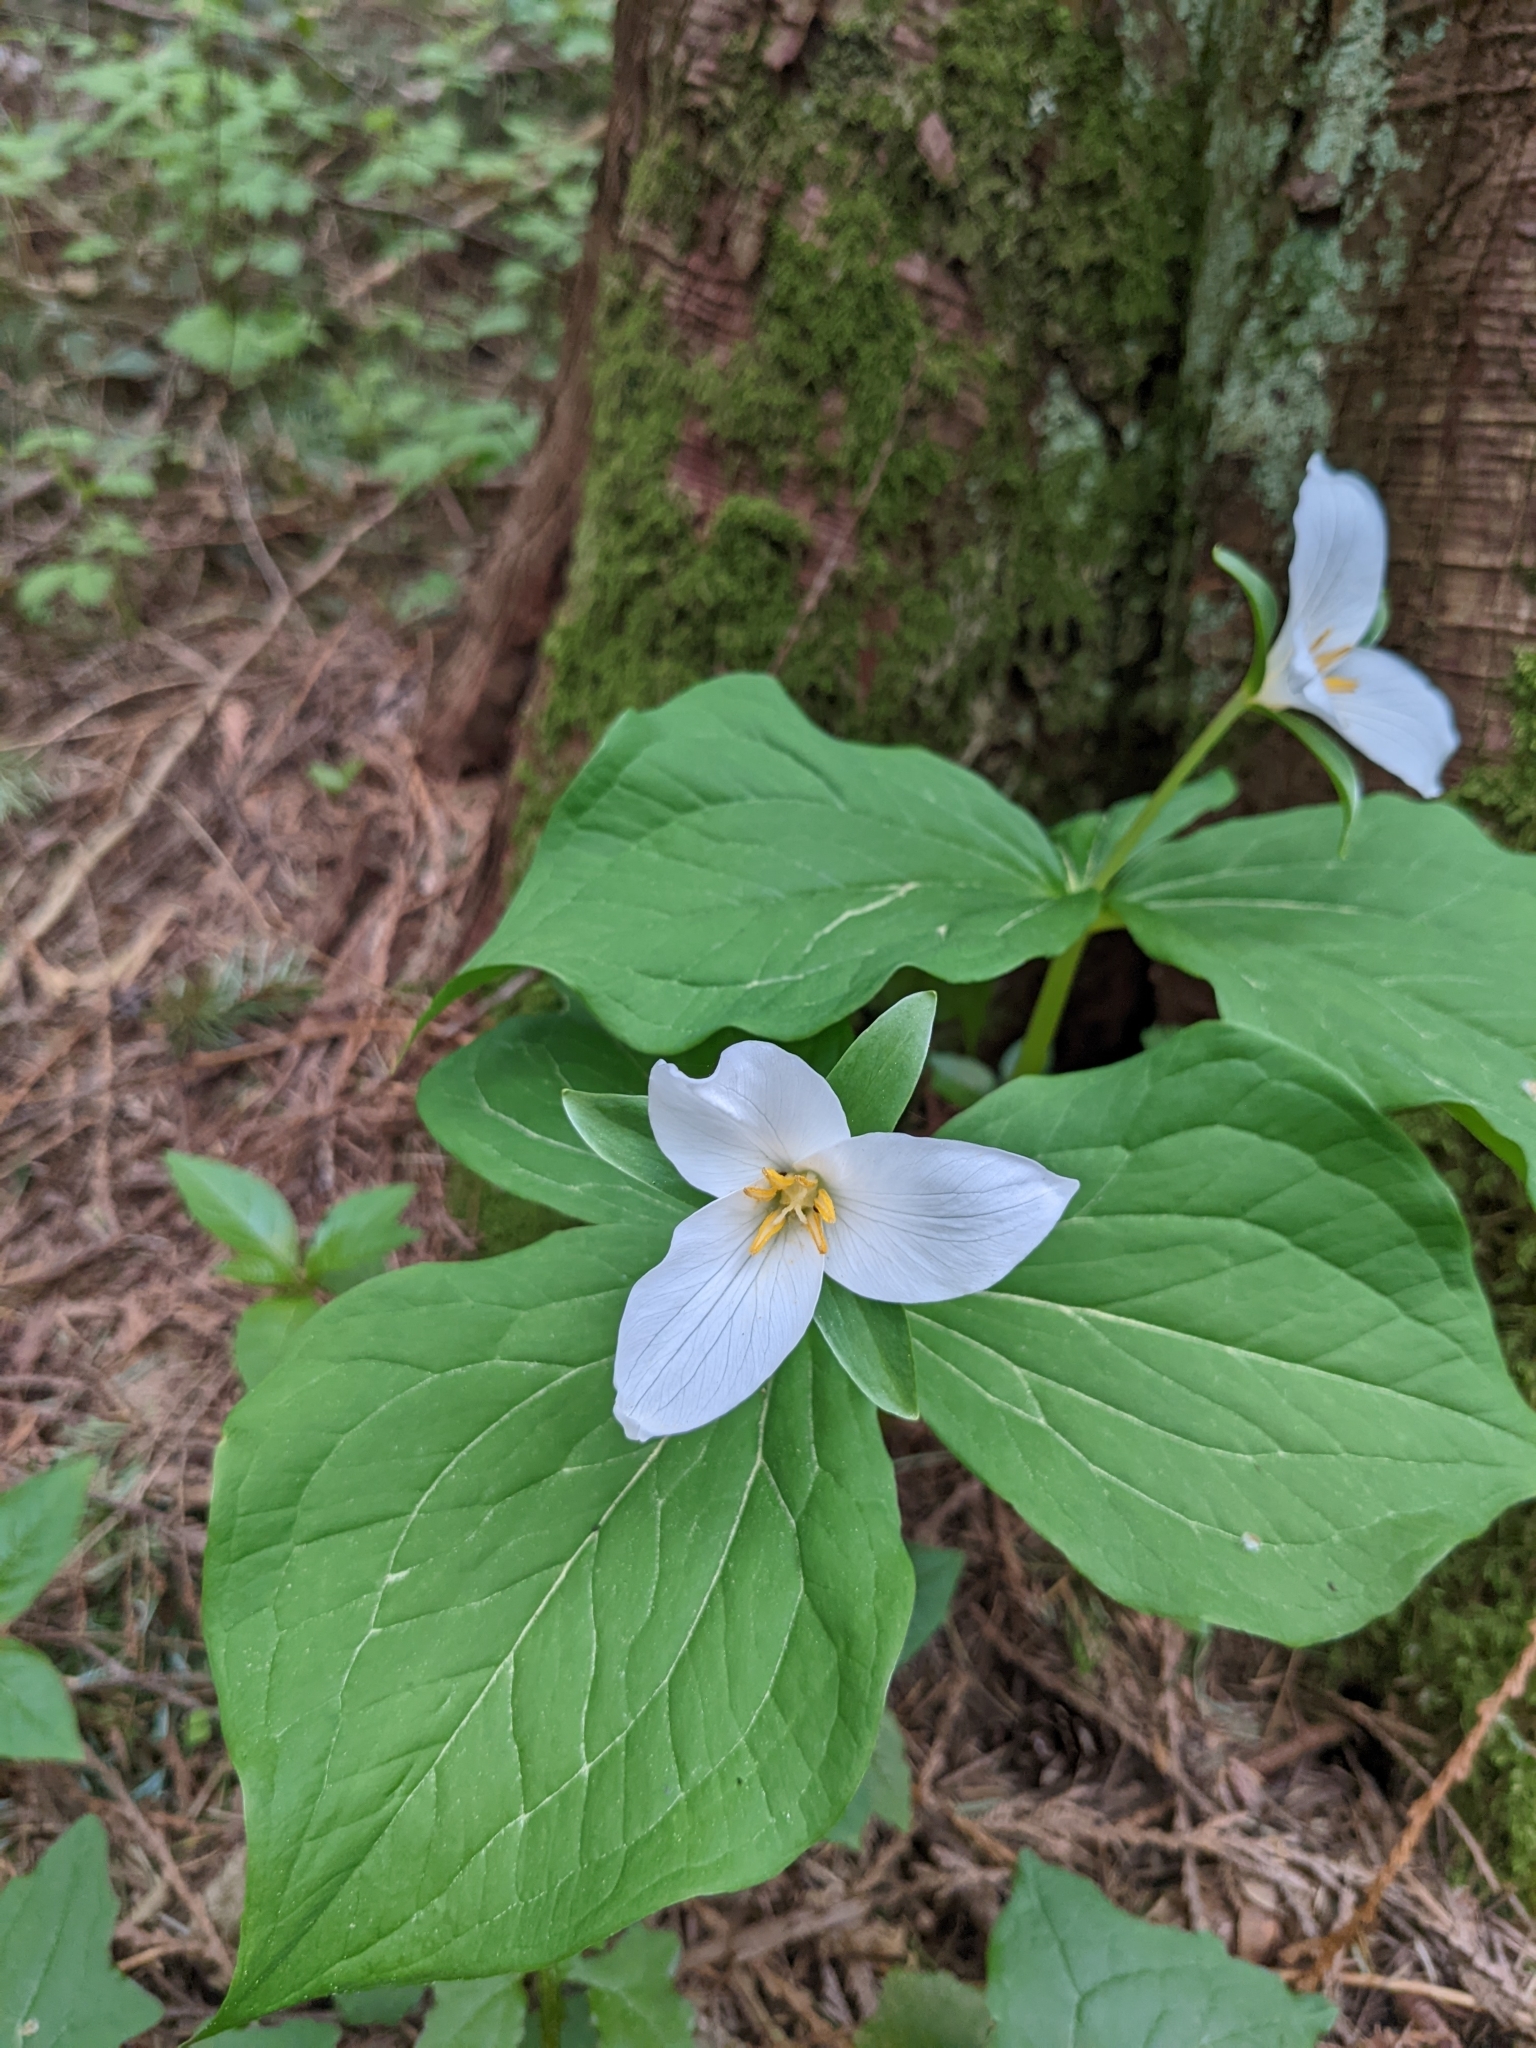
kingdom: Plantae
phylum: Tracheophyta
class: Liliopsida
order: Liliales
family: Melanthiaceae
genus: Trillium
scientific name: Trillium ovatum
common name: Pacific trillium
